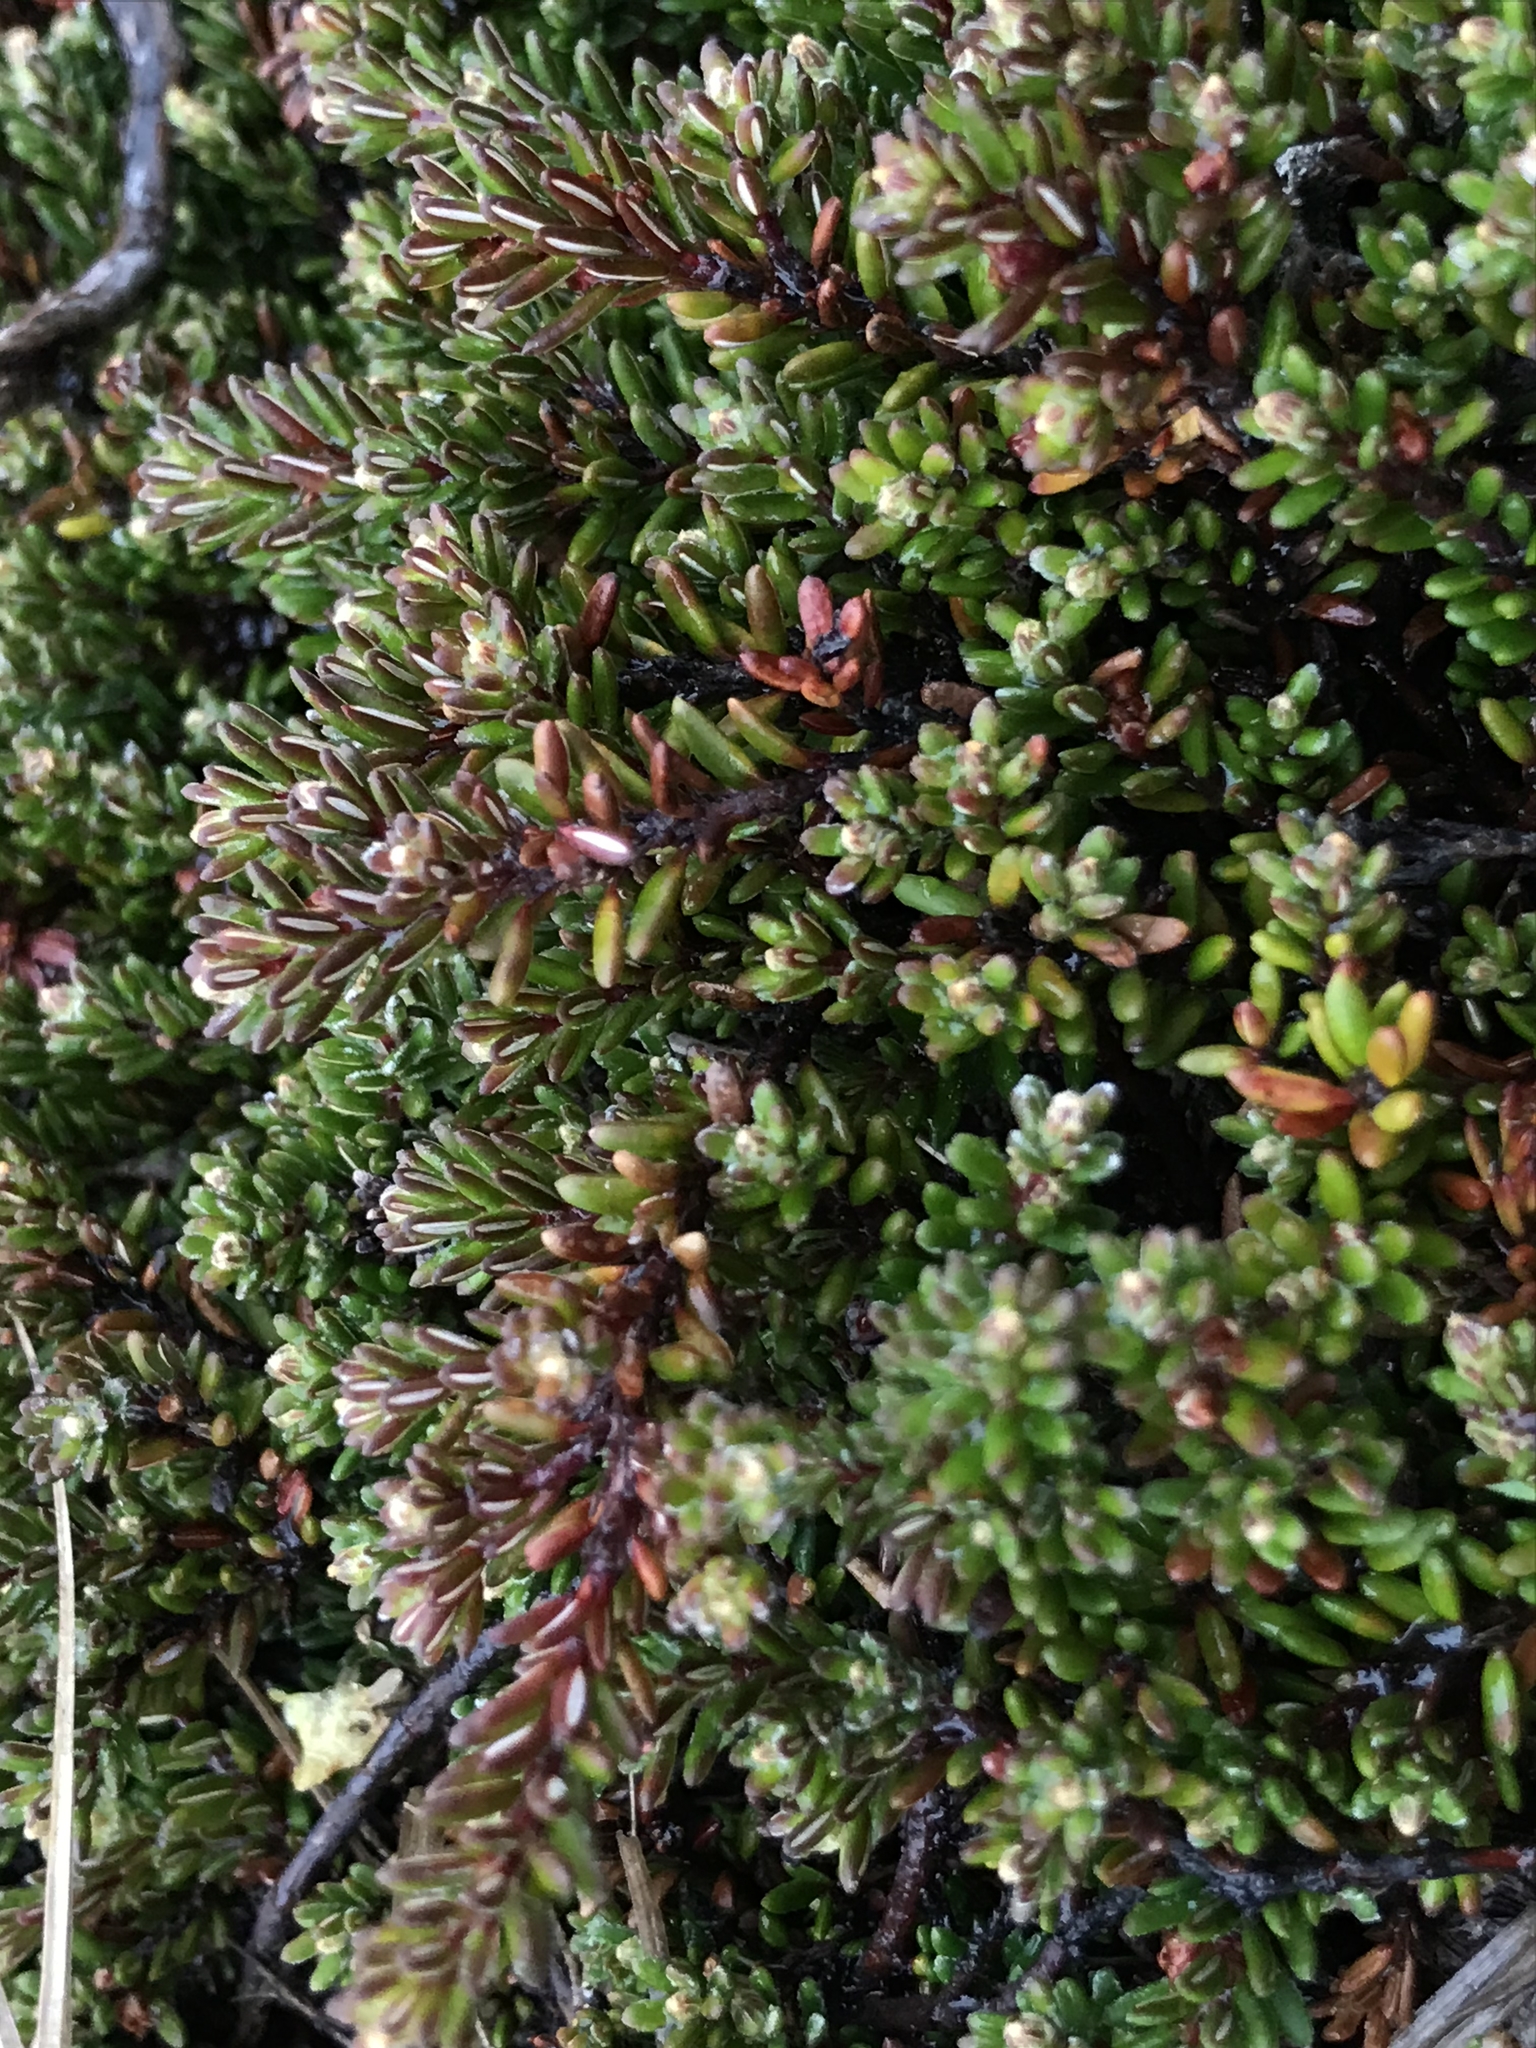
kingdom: Plantae
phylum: Tracheophyta
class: Magnoliopsida
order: Ericales
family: Ericaceae
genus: Empetrum
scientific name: Empetrum rubrum
